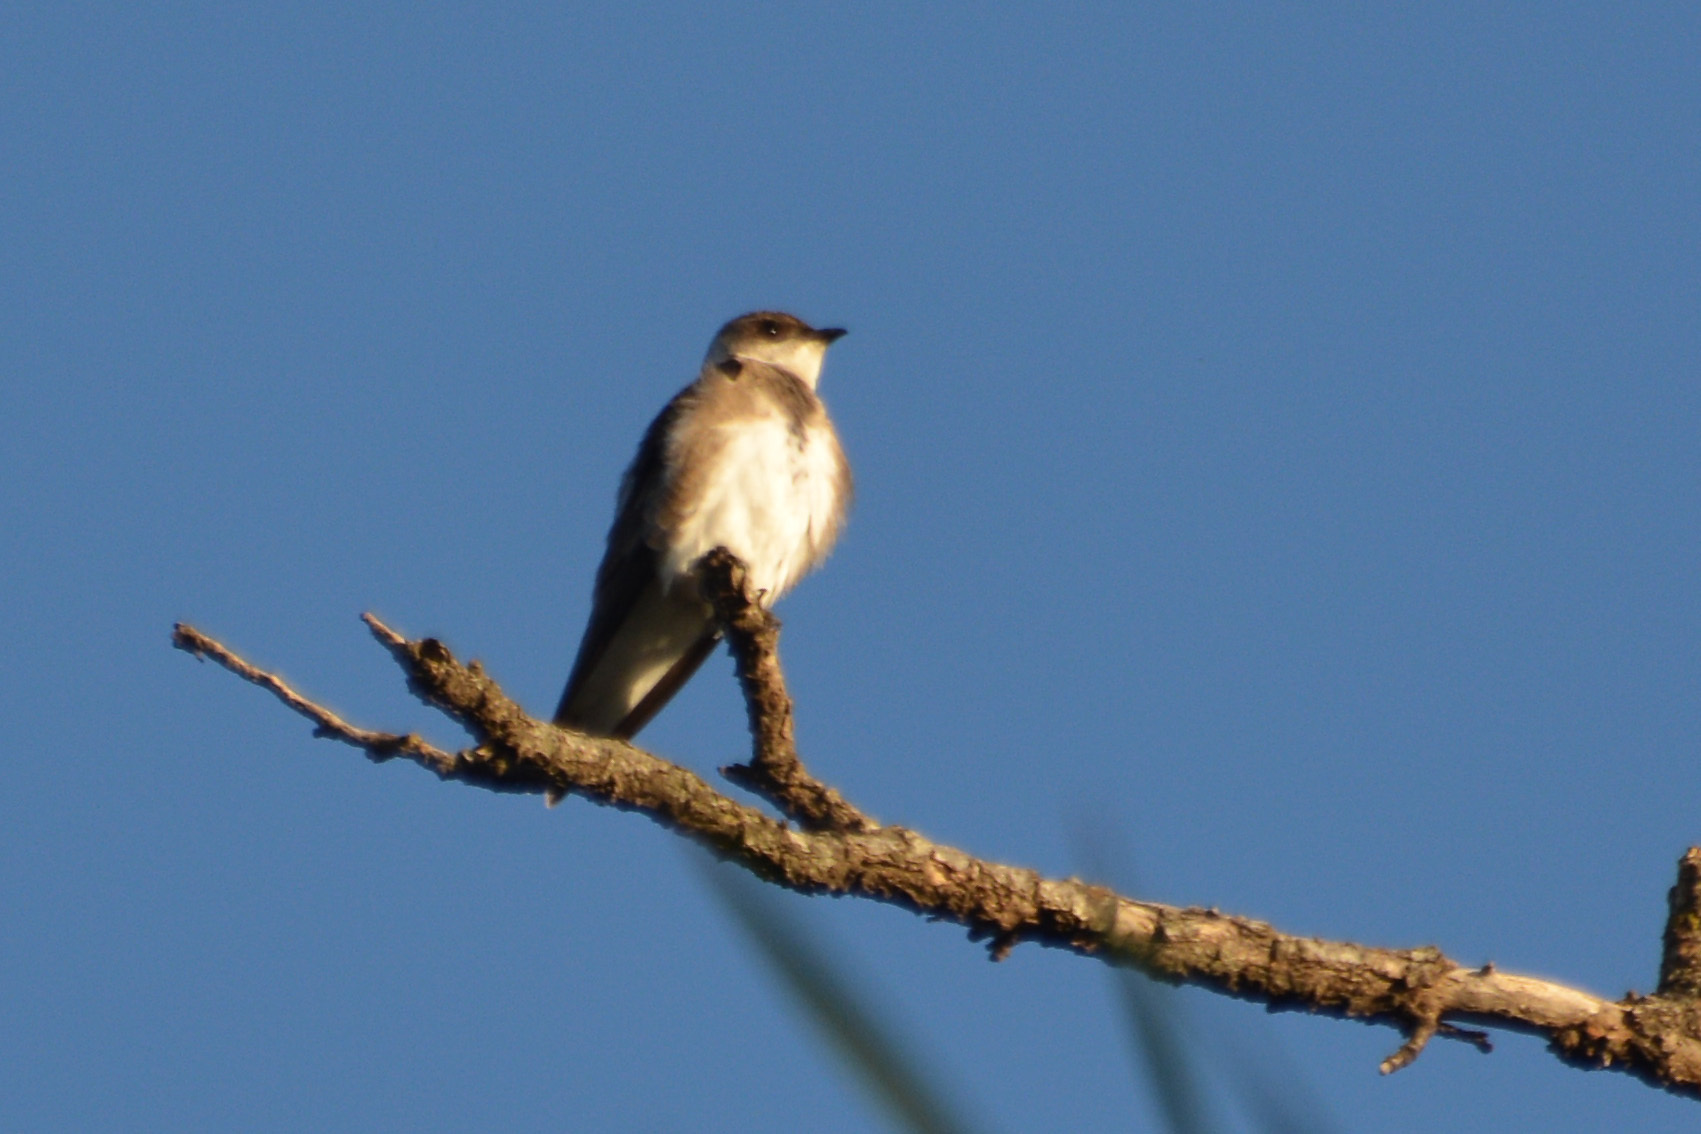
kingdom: Animalia
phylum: Chordata
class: Aves
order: Passeriformes
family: Hirundinidae
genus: Progne
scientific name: Progne tapera
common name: Brown-chested martin
